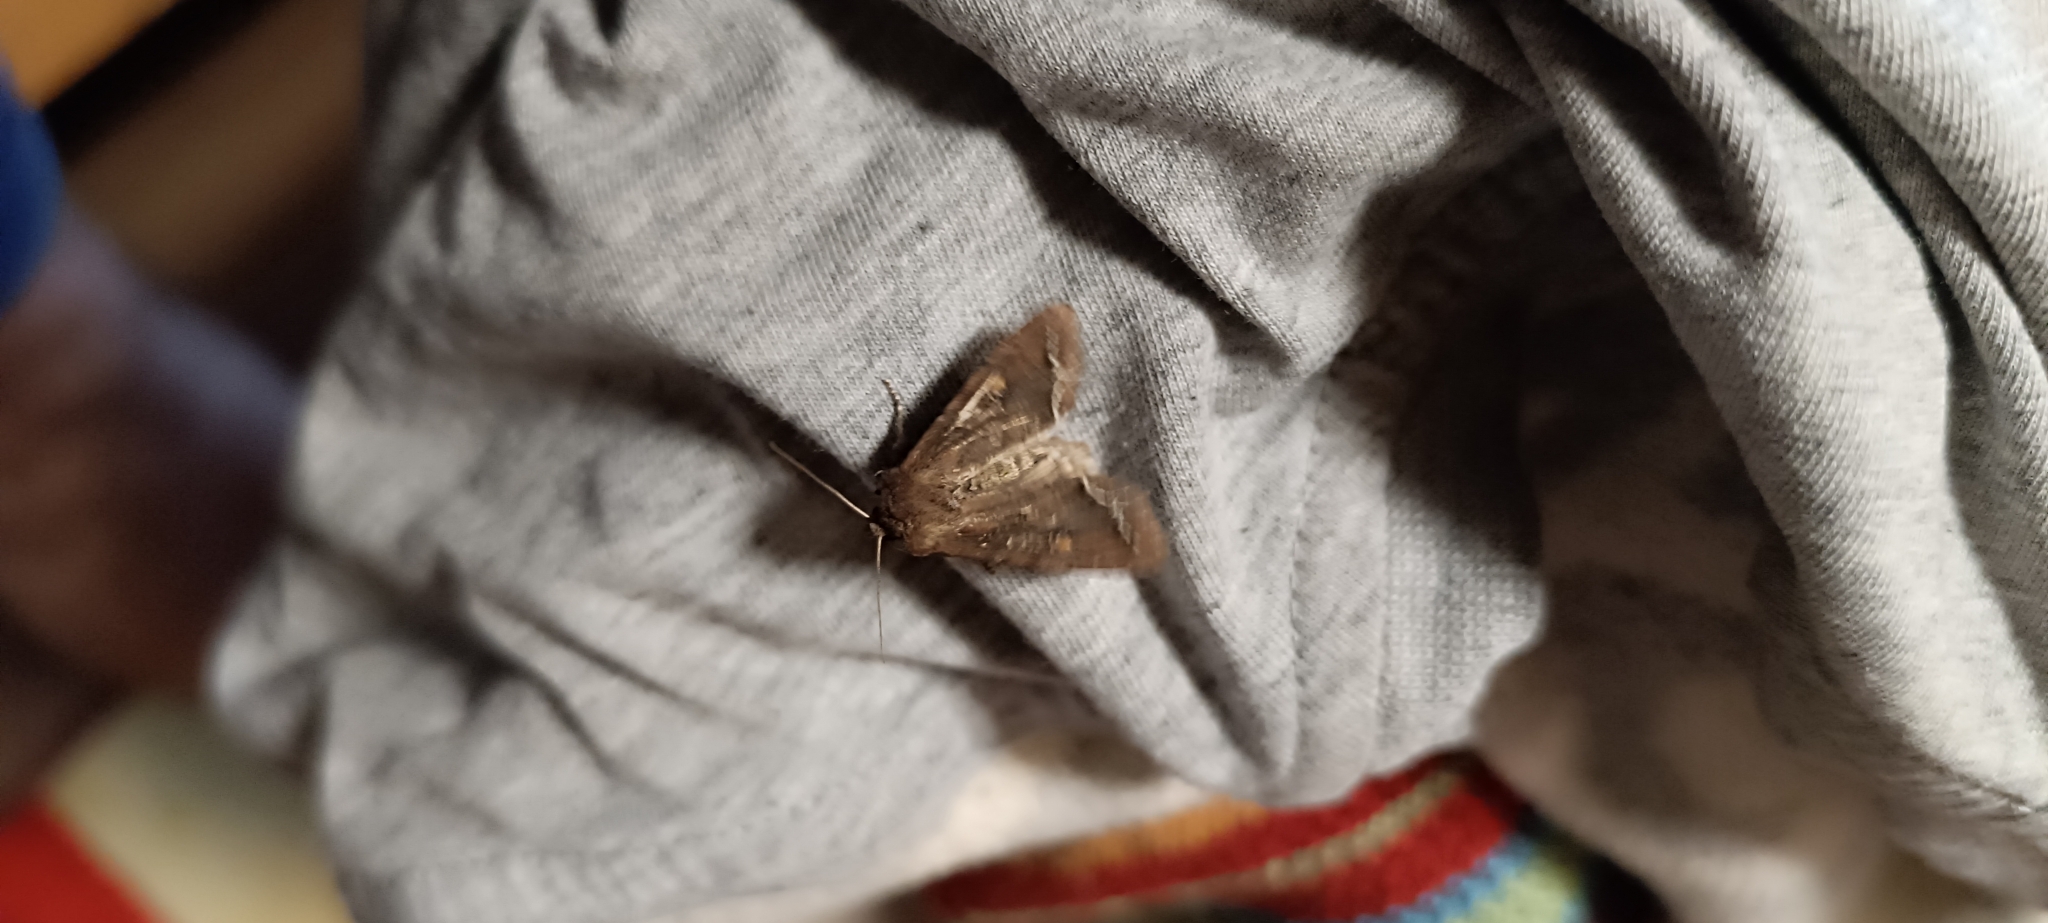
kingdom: Animalia
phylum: Arthropoda
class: Insecta
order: Lepidoptera
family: Noctuidae
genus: Lacanobia
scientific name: Lacanobia oleracea
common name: Bright-line brown-eye
